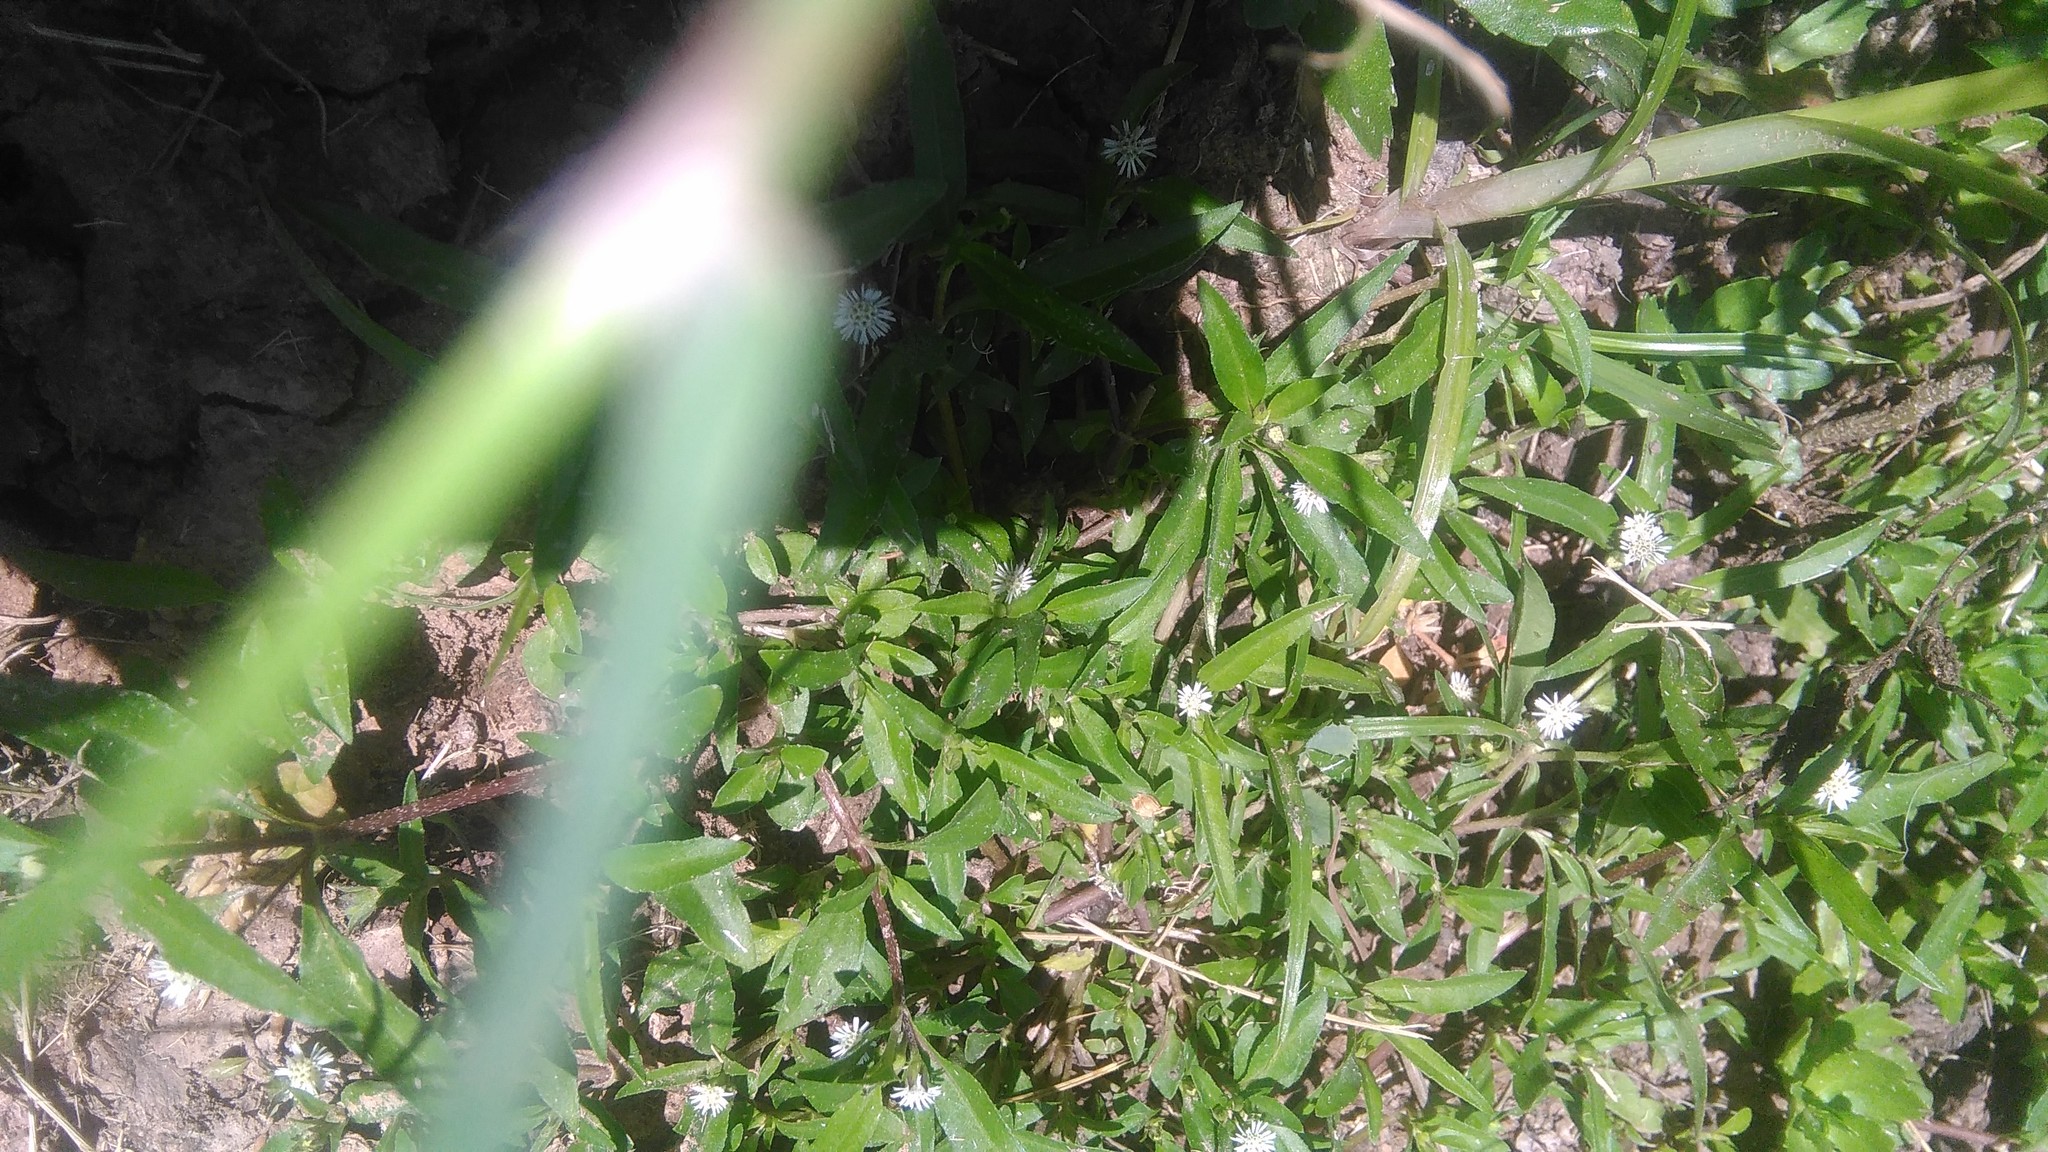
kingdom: Plantae
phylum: Tracheophyta
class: Magnoliopsida
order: Asterales
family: Asteraceae
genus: Eclipta
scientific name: Eclipta prostrata
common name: False daisy
